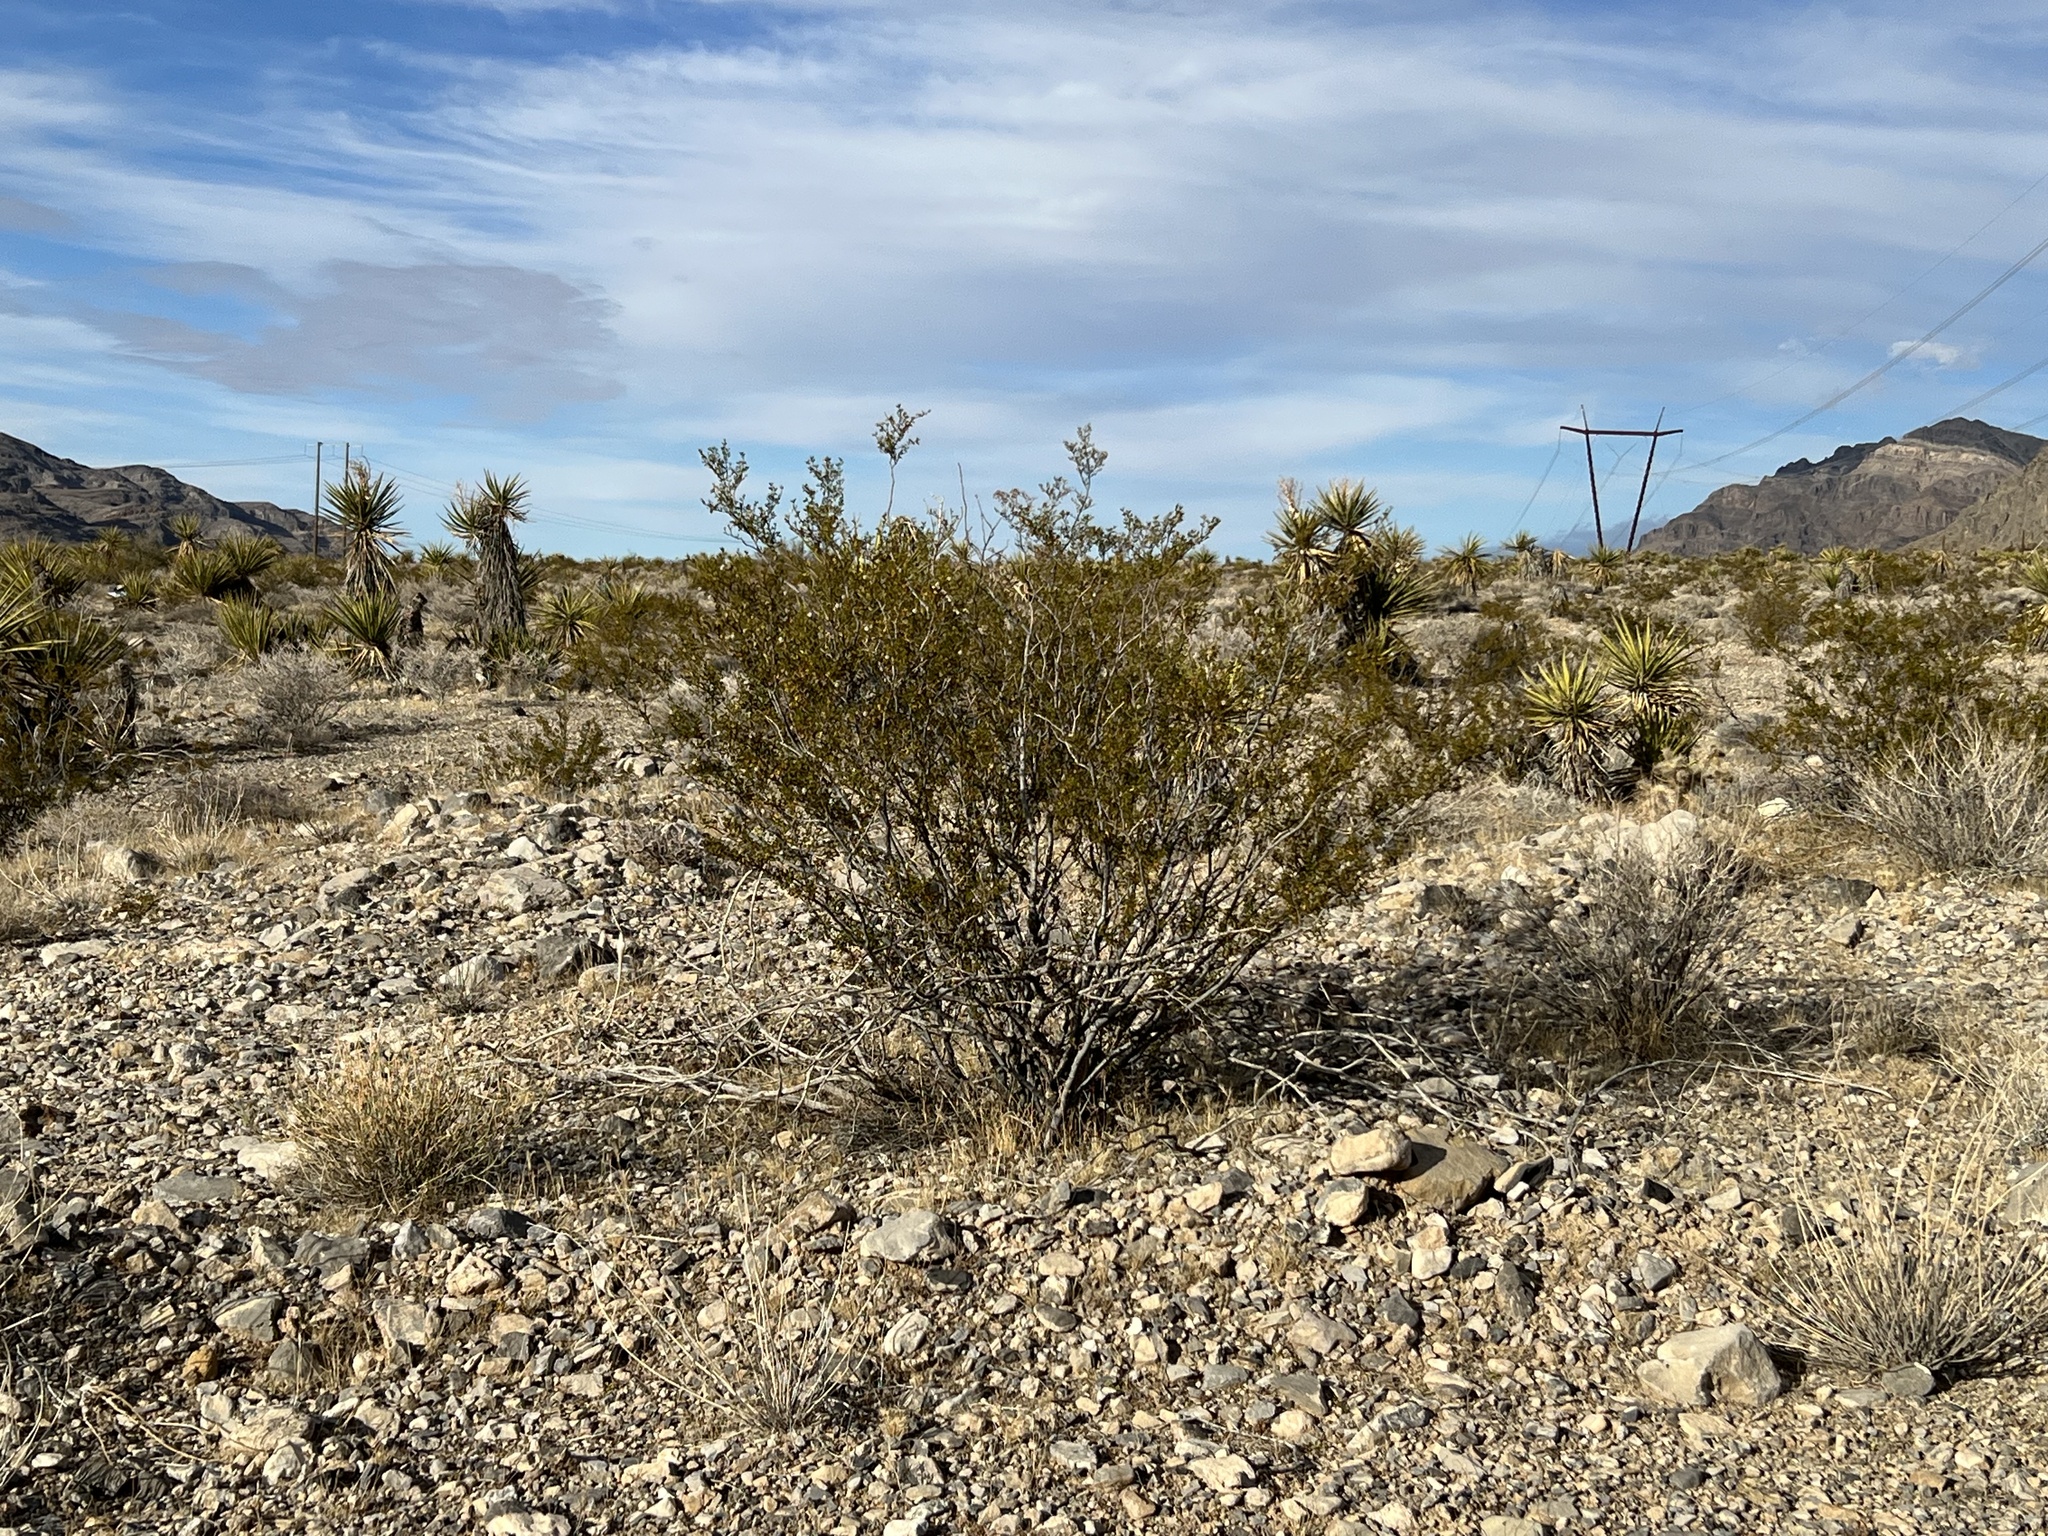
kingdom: Plantae
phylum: Tracheophyta
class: Magnoliopsida
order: Zygophyllales
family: Zygophyllaceae
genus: Larrea
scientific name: Larrea tridentata
